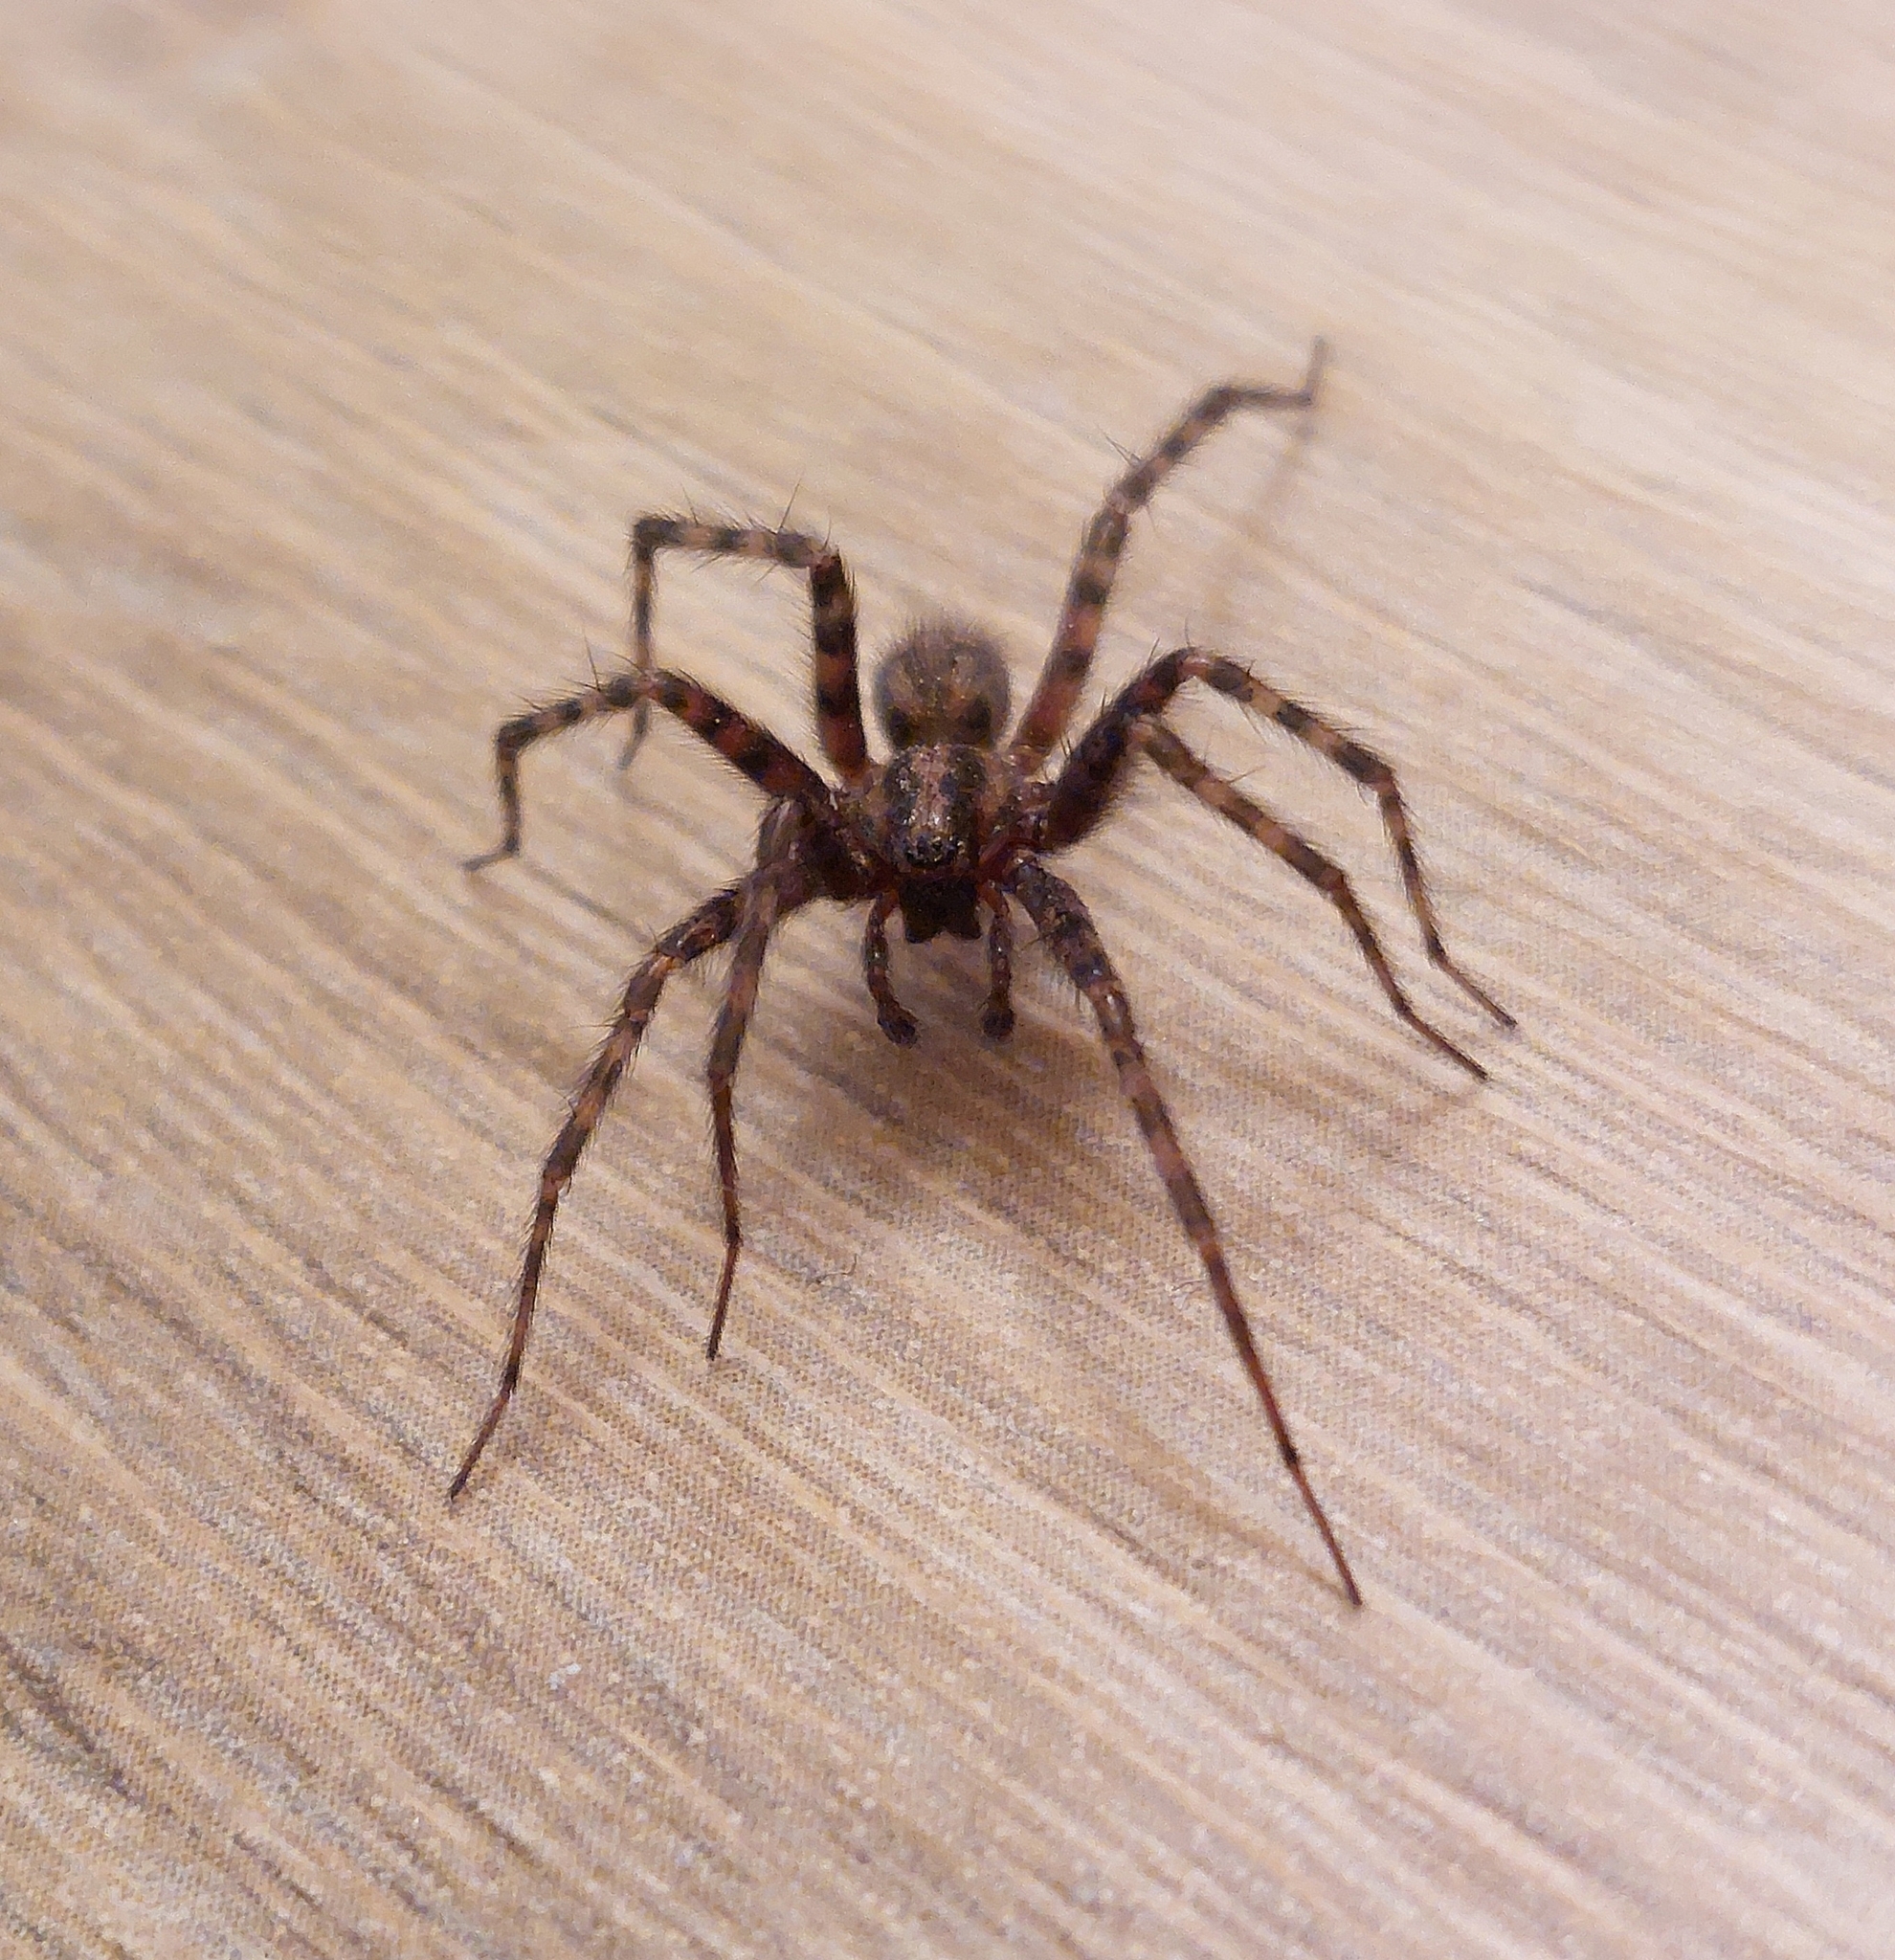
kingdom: Animalia
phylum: Arthropoda
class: Arachnida
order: Araneae
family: Agelenidae
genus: Tegenaria
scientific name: Tegenaria domestica
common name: Barn funnel weaver
